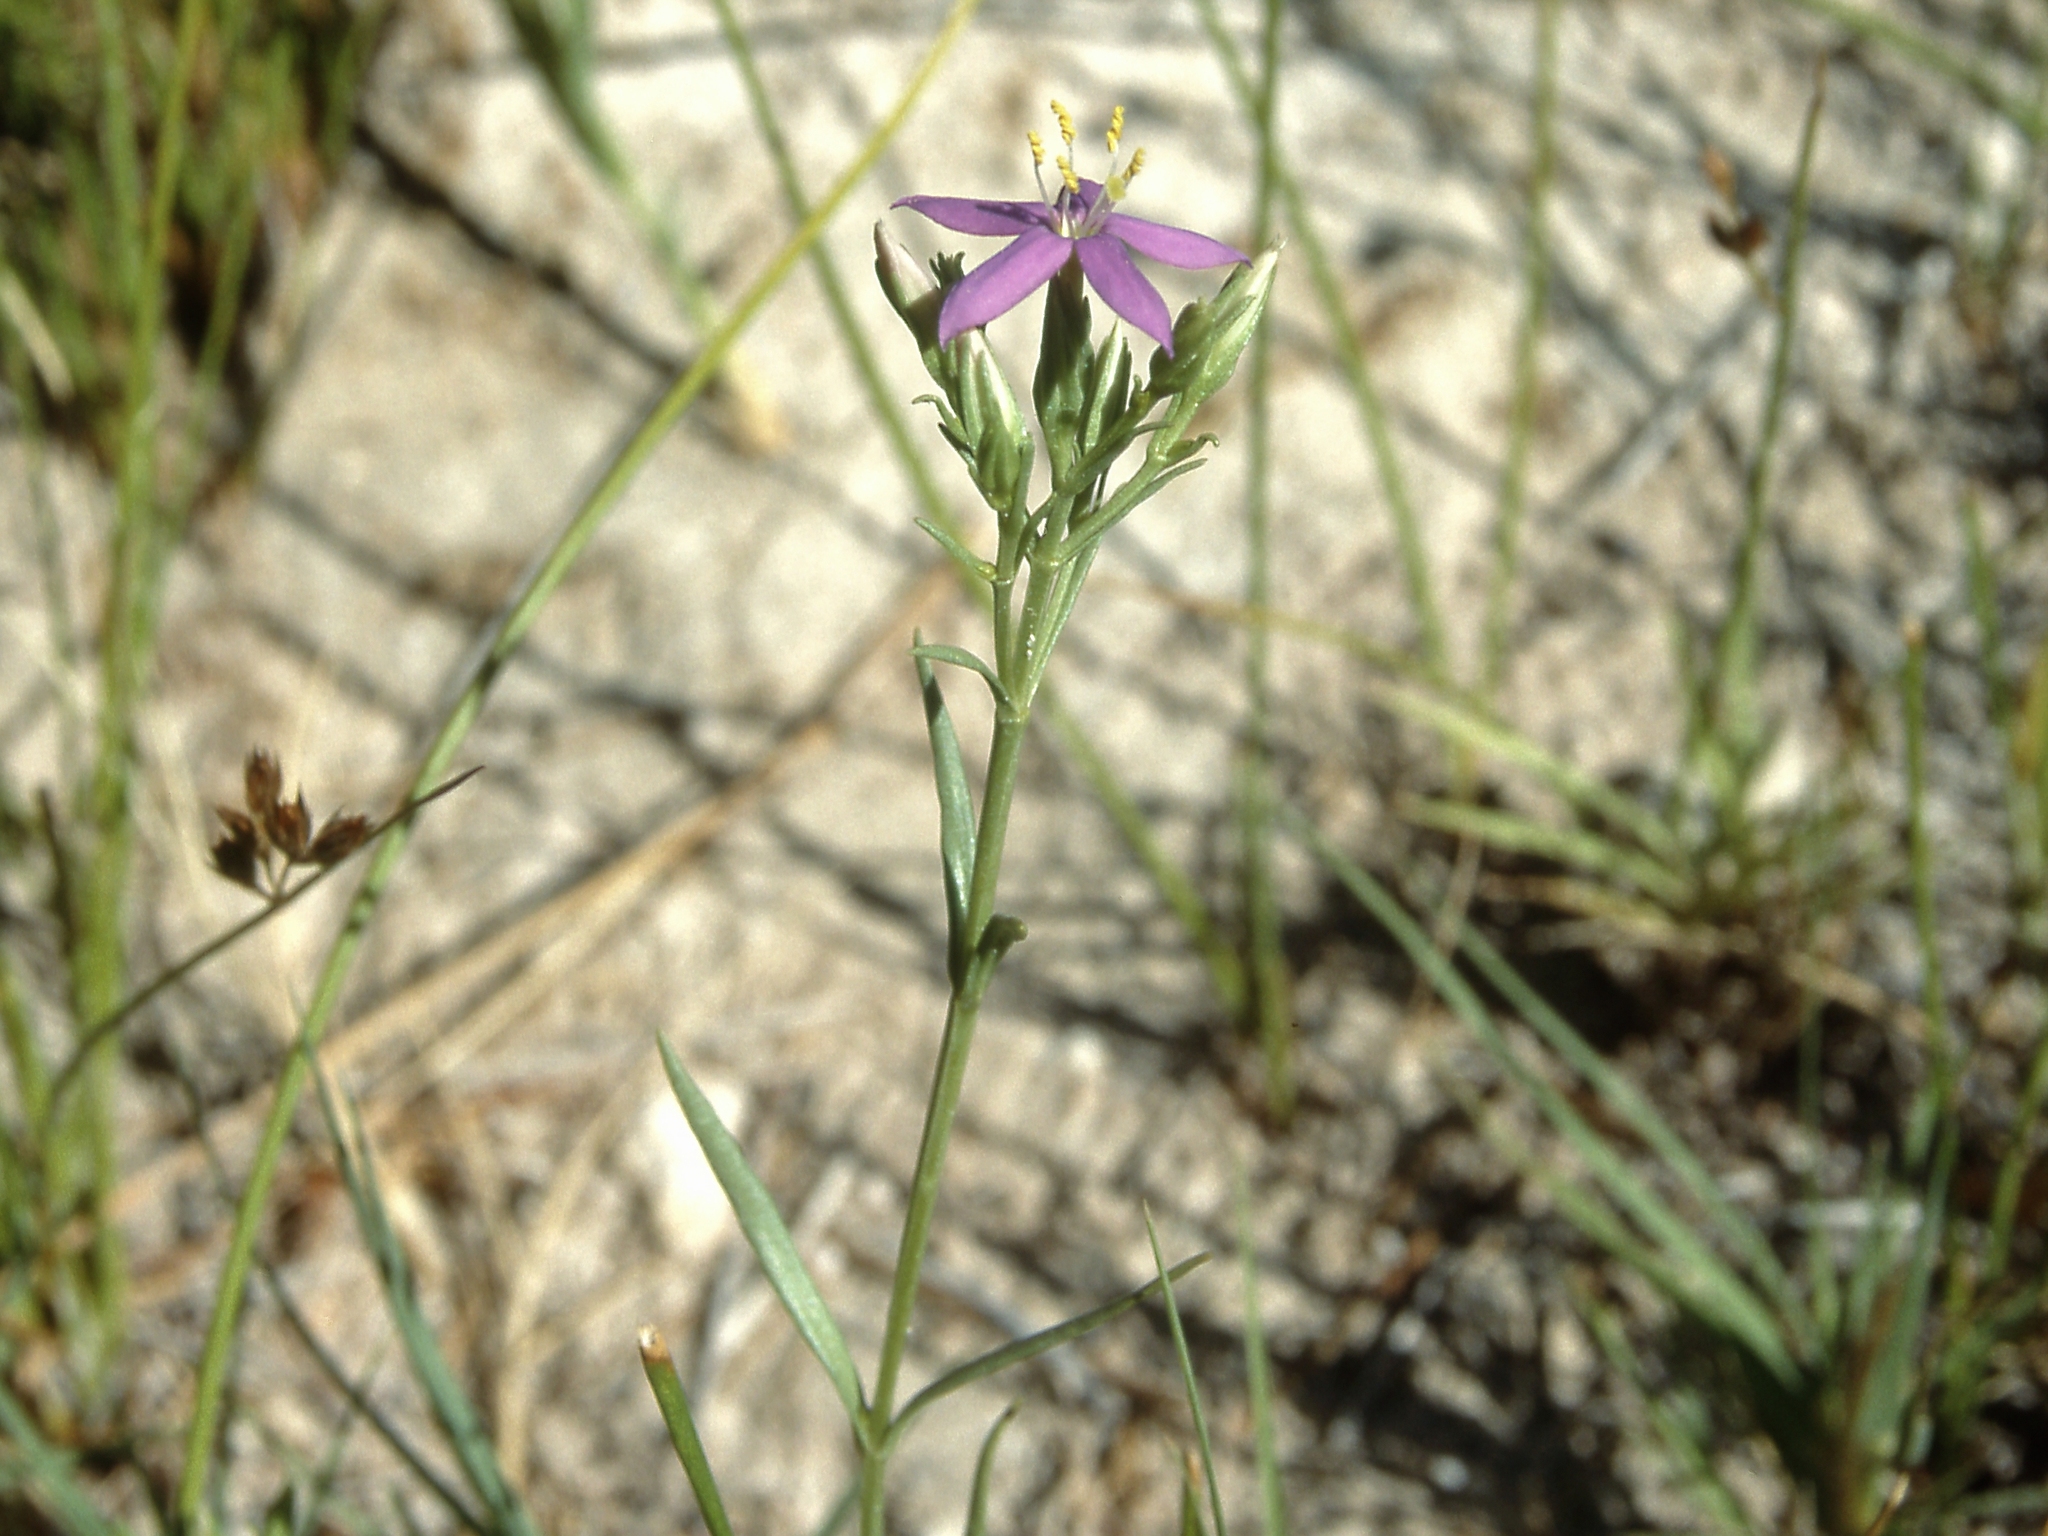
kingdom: Plantae
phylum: Tracheophyta
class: Magnoliopsida
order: Gentianales
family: Gentianaceae
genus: Zeltnera
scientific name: Zeltnera namatophila
